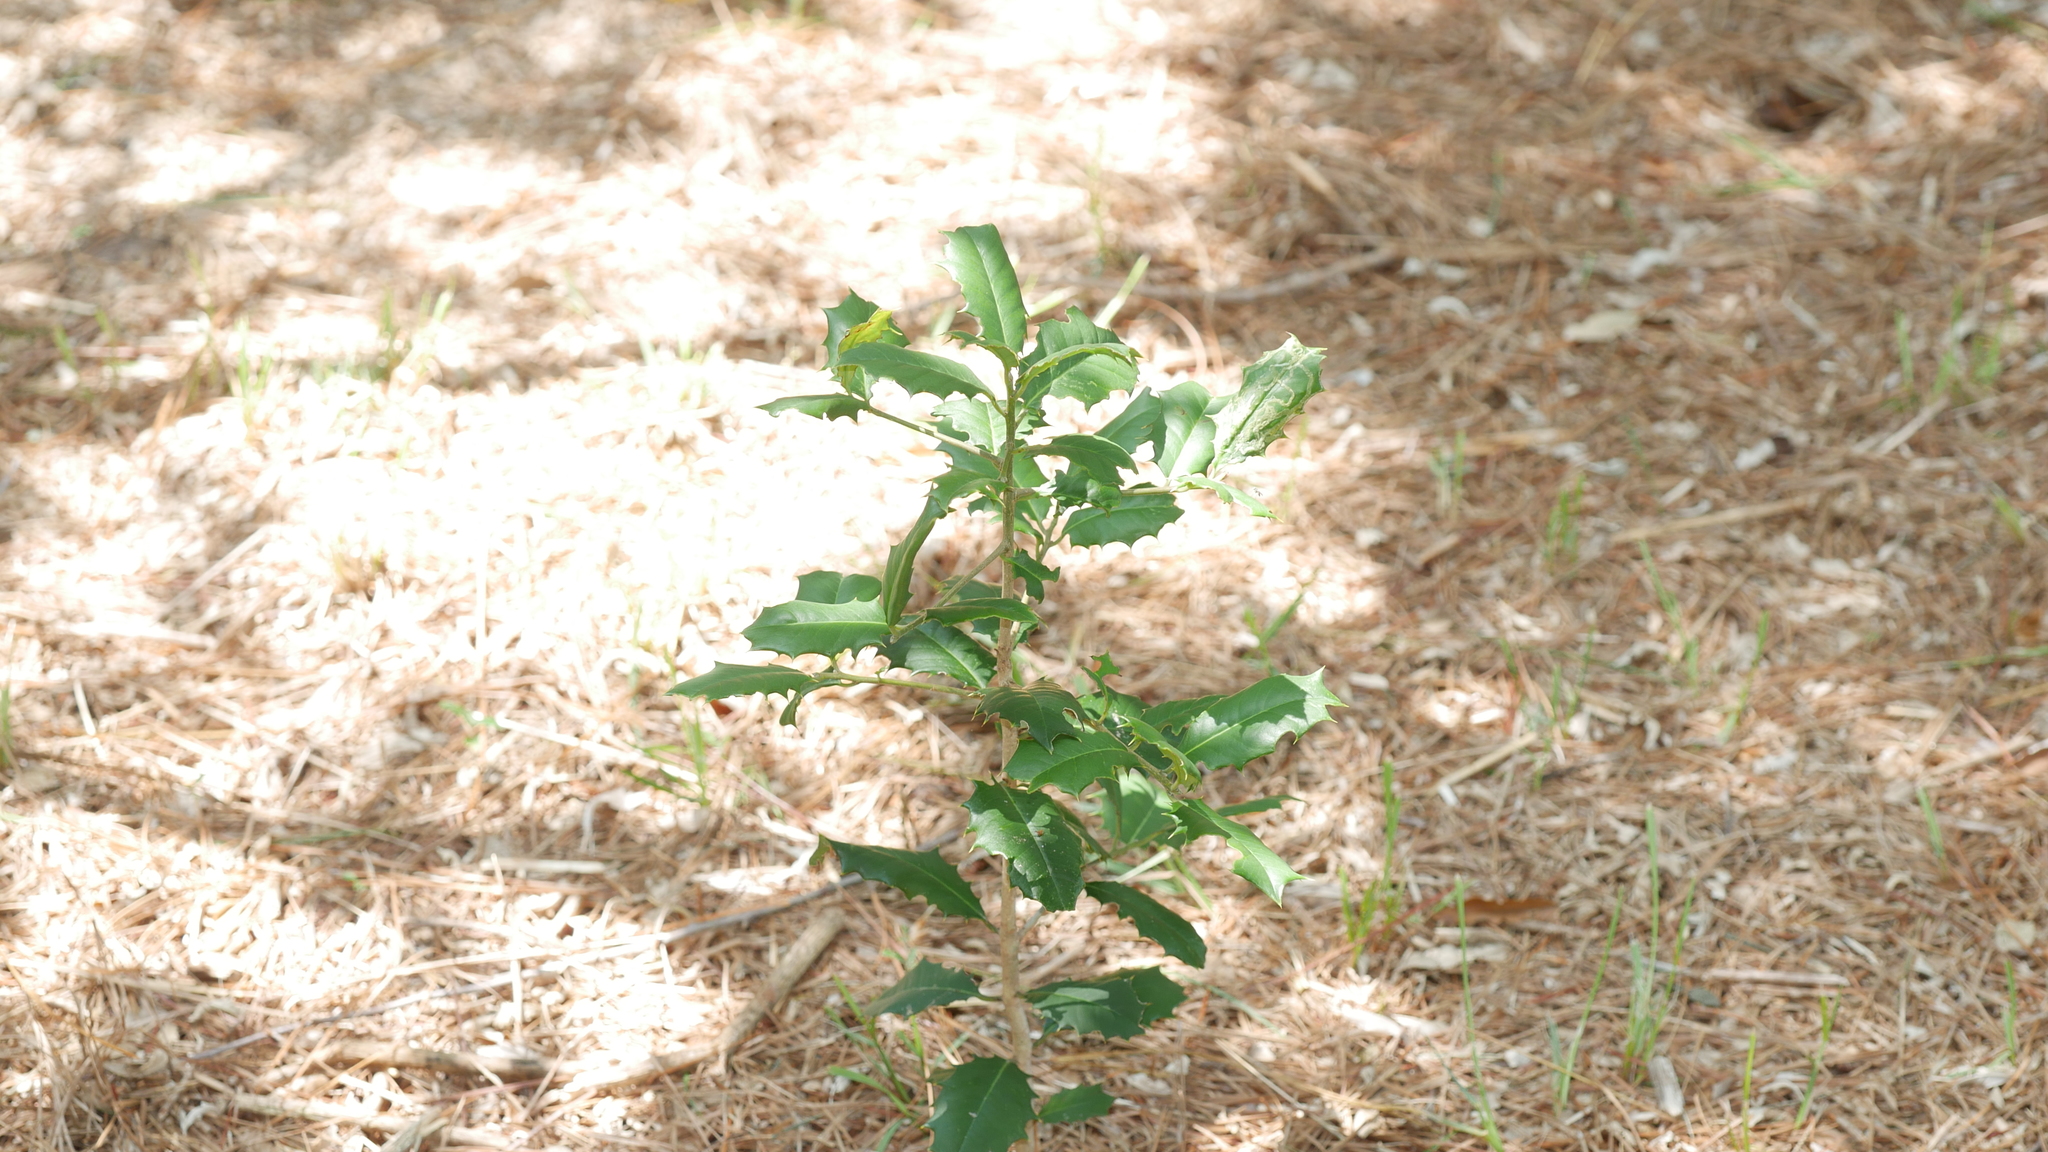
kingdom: Plantae
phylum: Tracheophyta
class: Magnoliopsida
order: Aquifoliales
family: Aquifoliaceae
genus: Ilex
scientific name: Ilex opaca
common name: American holly
